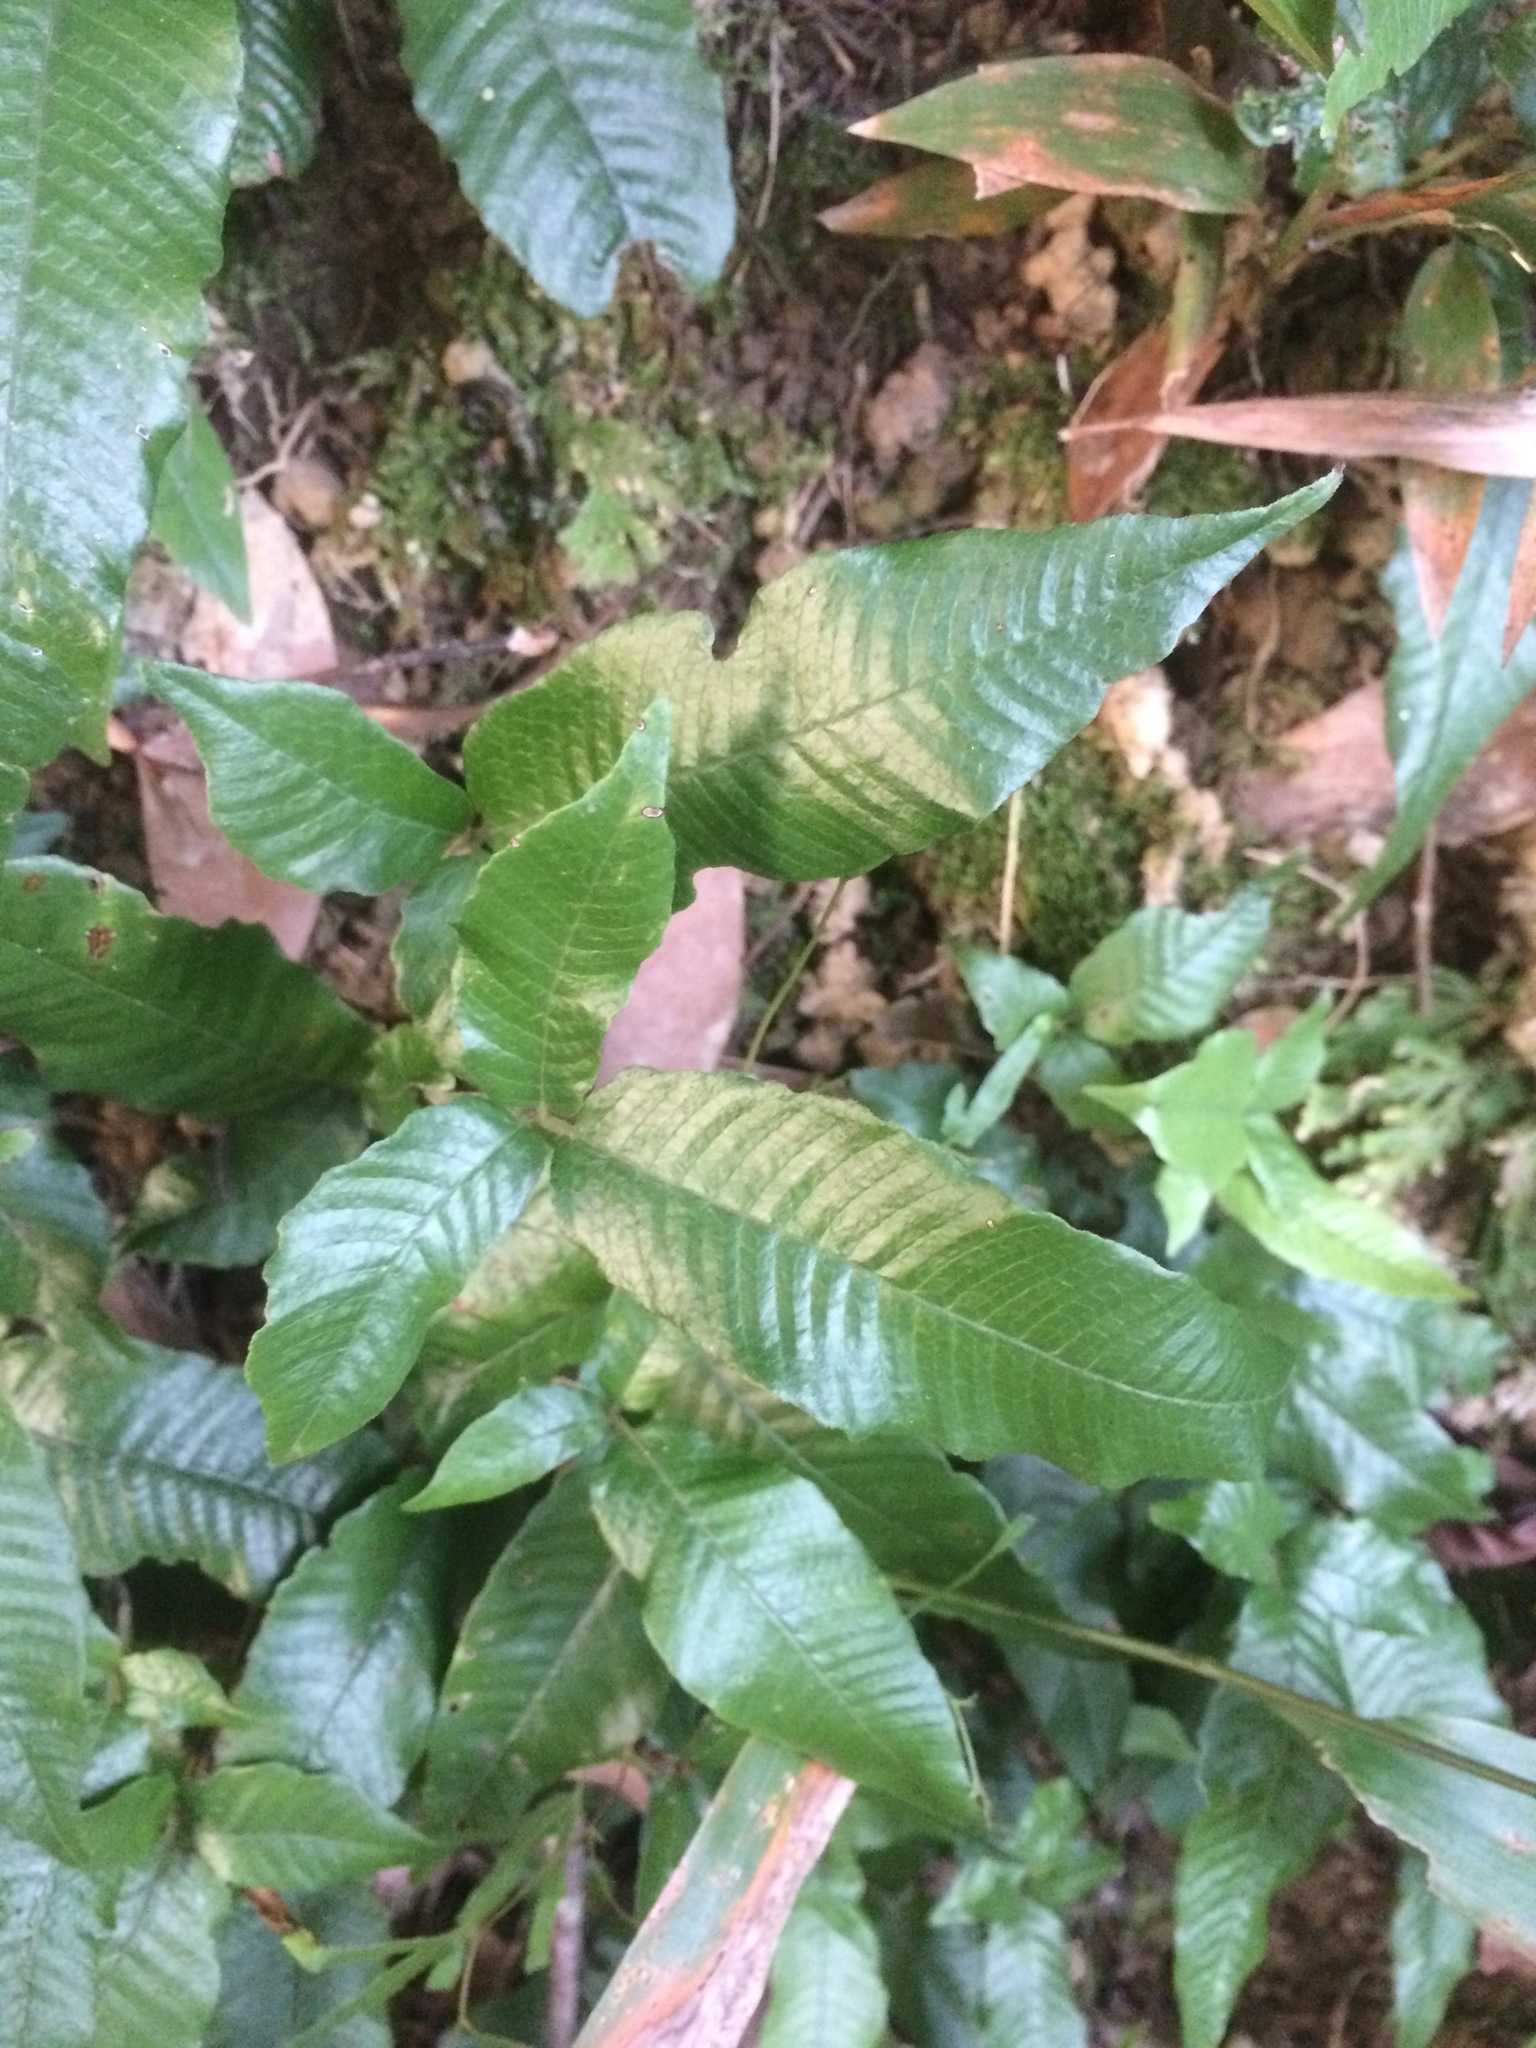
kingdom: Plantae
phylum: Tracheophyta
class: Polypodiopsida
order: Polypodiales
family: Thelypteridaceae
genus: Grypothrix
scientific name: Grypothrix triphylla
